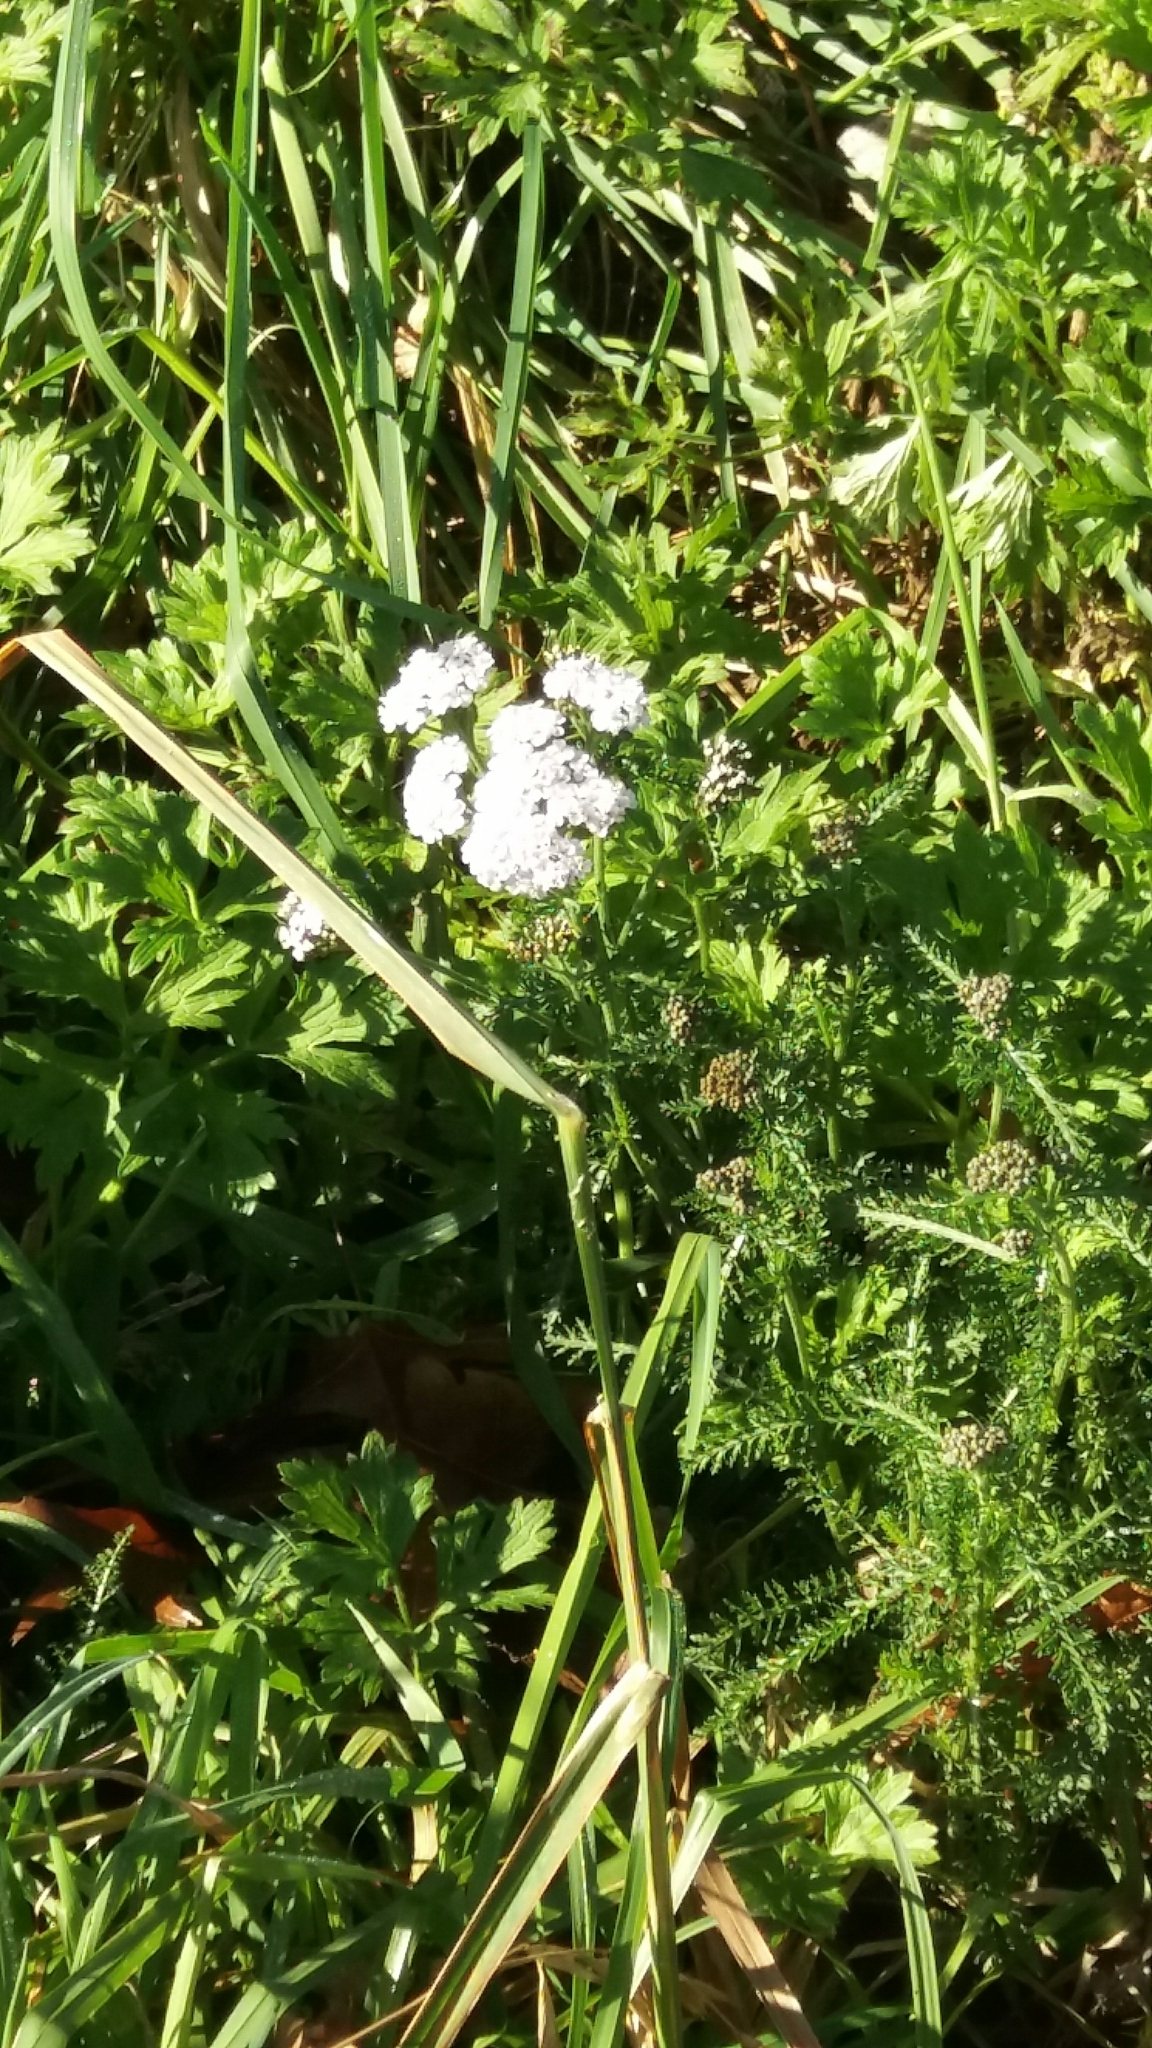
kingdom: Plantae
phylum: Tracheophyta
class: Magnoliopsida
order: Asterales
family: Asteraceae
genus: Achillea
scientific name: Achillea millefolium
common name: Yarrow
